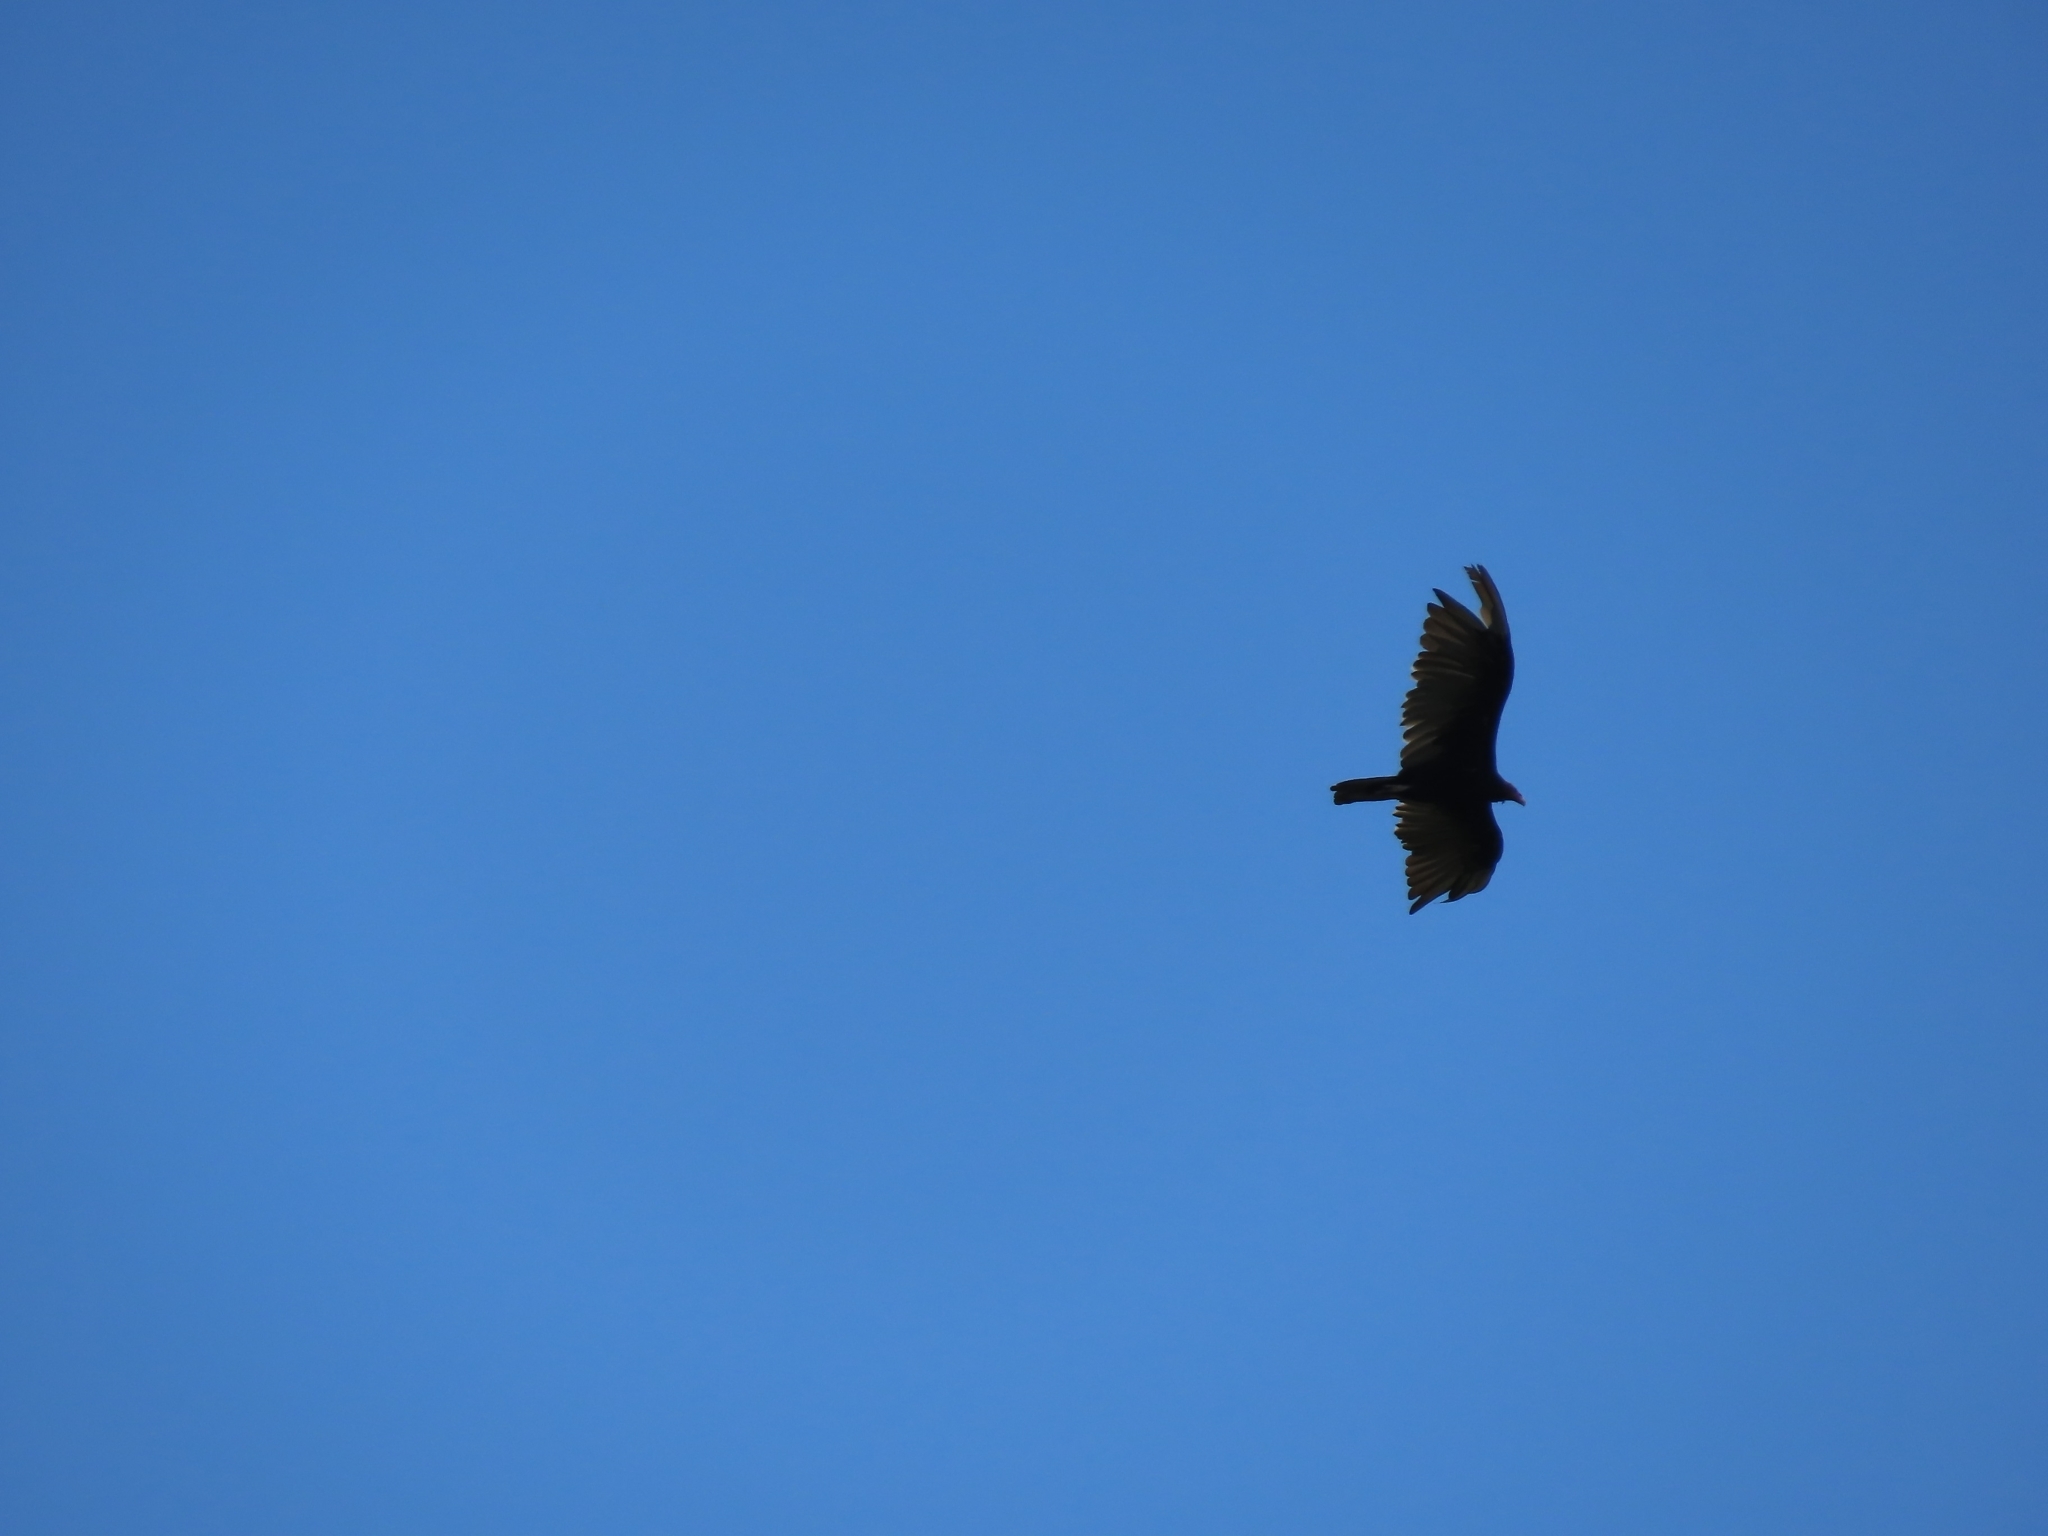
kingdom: Animalia
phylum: Chordata
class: Aves
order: Accipitriformes
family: Cathartidae
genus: Cathartes
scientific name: Cathartes aura
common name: Turkey vulture
